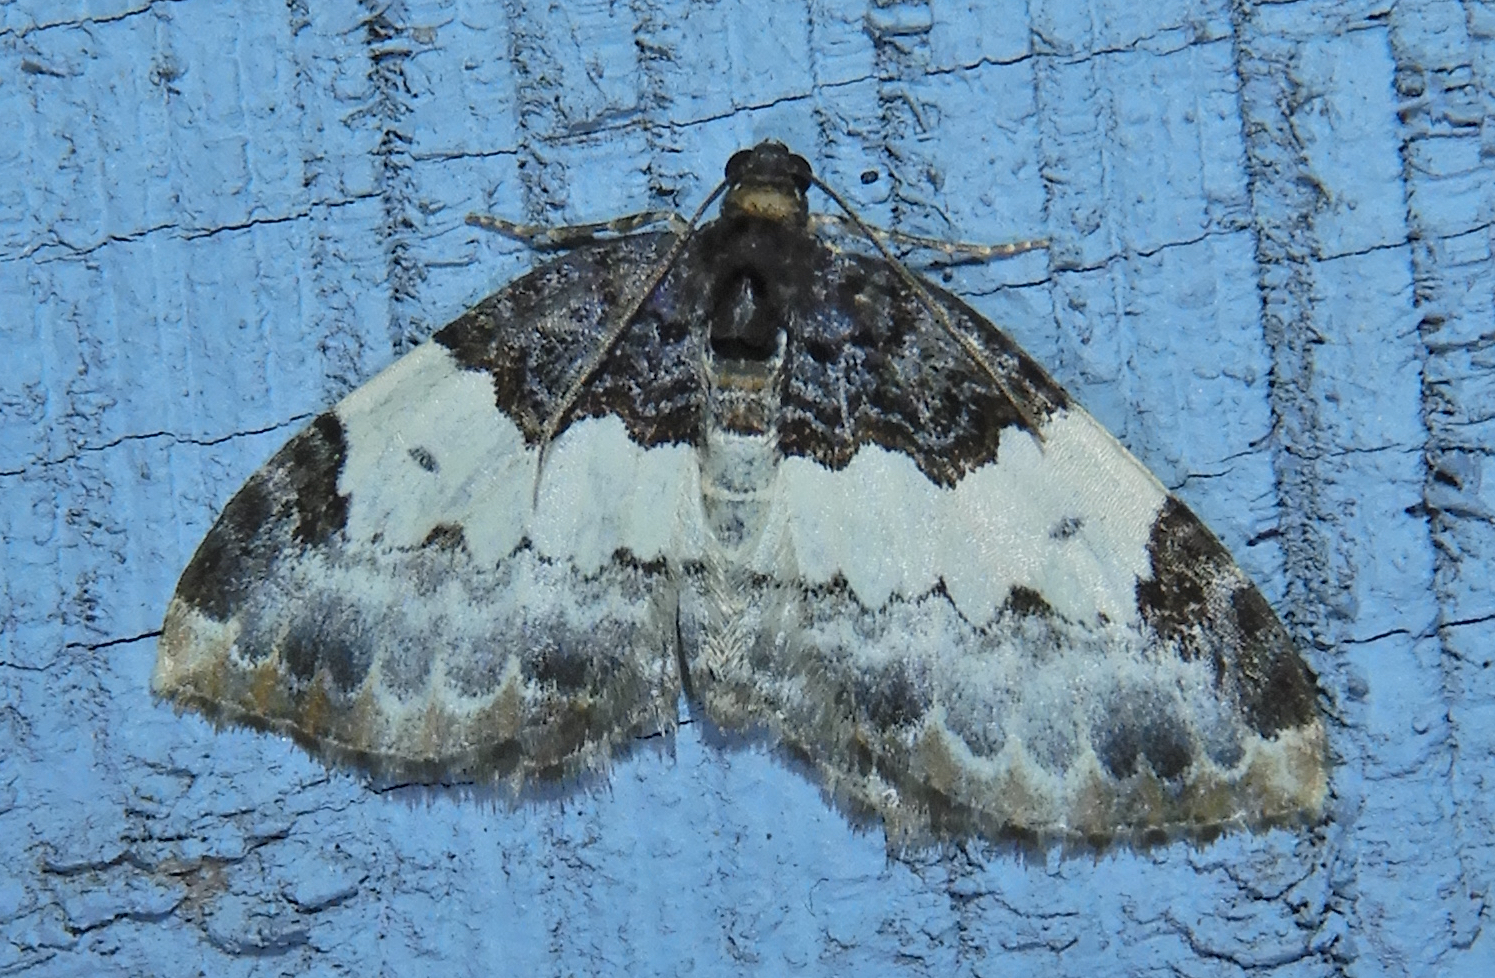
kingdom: Animalia
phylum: Arthropoda
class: Insecta
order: Lepidoptera
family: Geometridae
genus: Mesoleuca
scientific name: Mesoleuca ruficillata
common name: White-ribboned carpet moth
